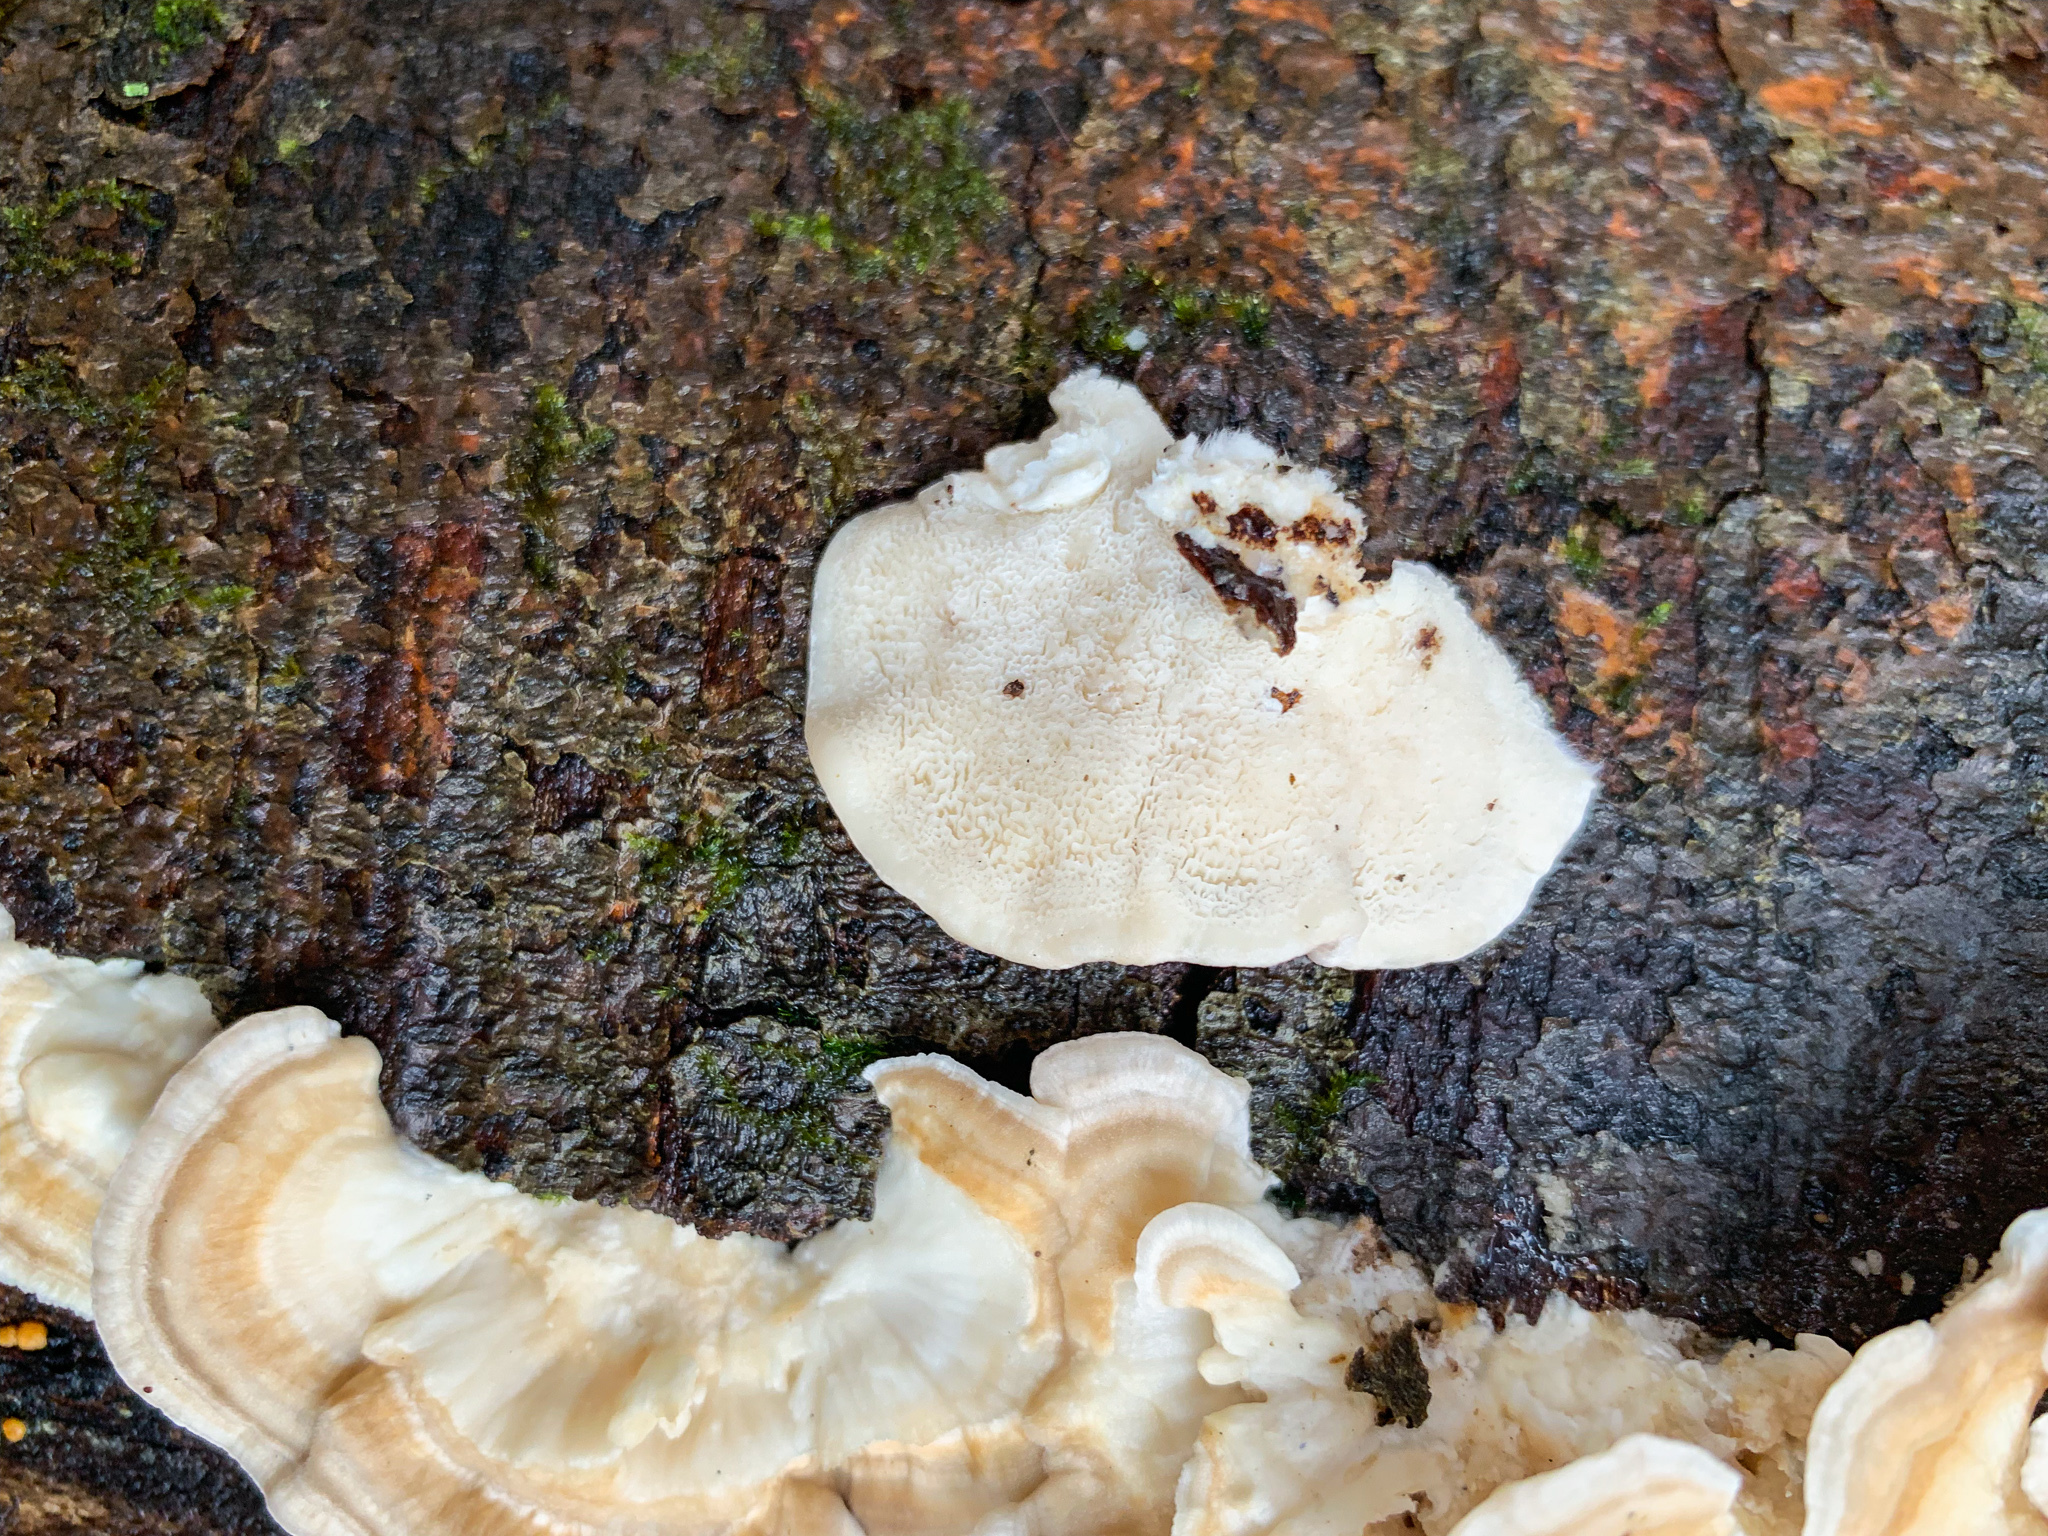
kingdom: Fungi
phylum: Basidiomycota
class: Agaricomycetes
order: Polyporales
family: Polyporaceae
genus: Trametes
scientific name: Trametes pubescens
